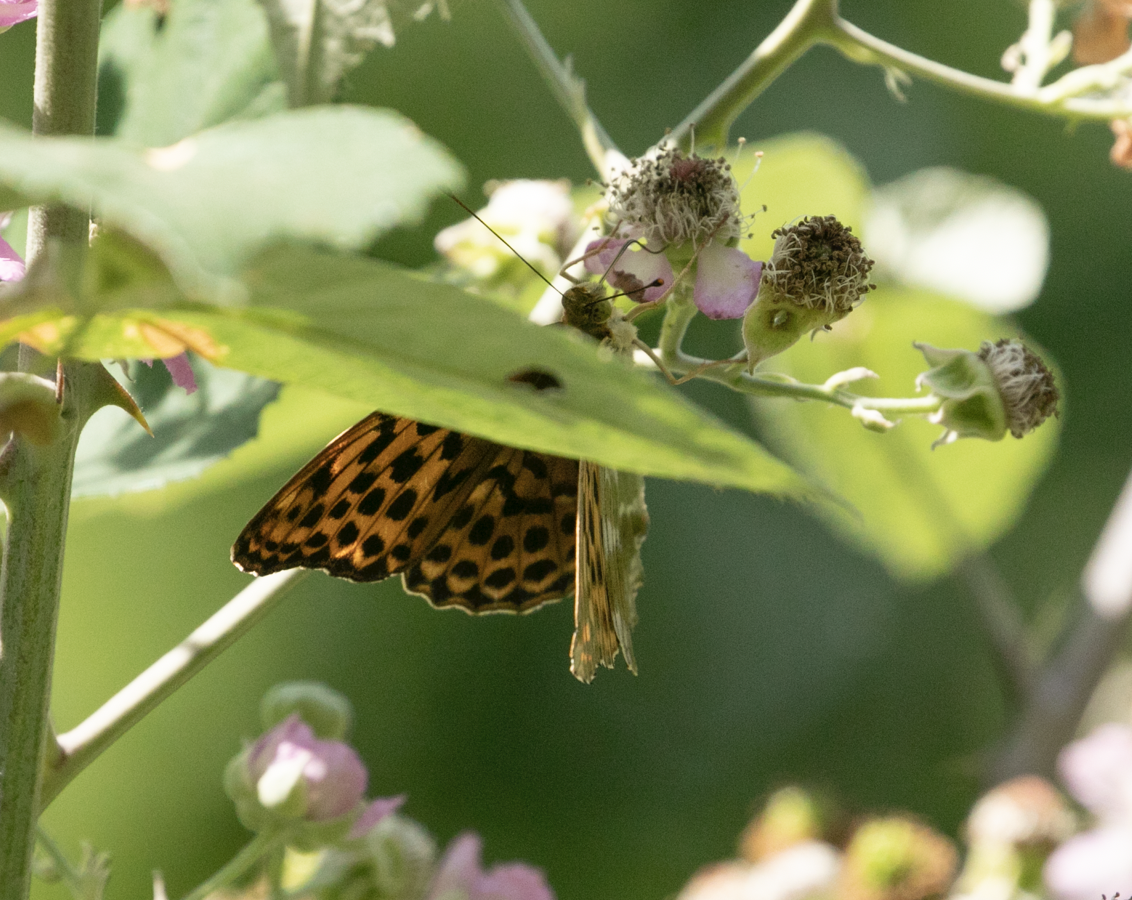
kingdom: Animalia
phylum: Arthropoda
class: Insecta
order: Lepidoptera
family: Nymphalidae
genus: Argynnis
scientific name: Argynnis paphia
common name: Silver-washed fritillary
